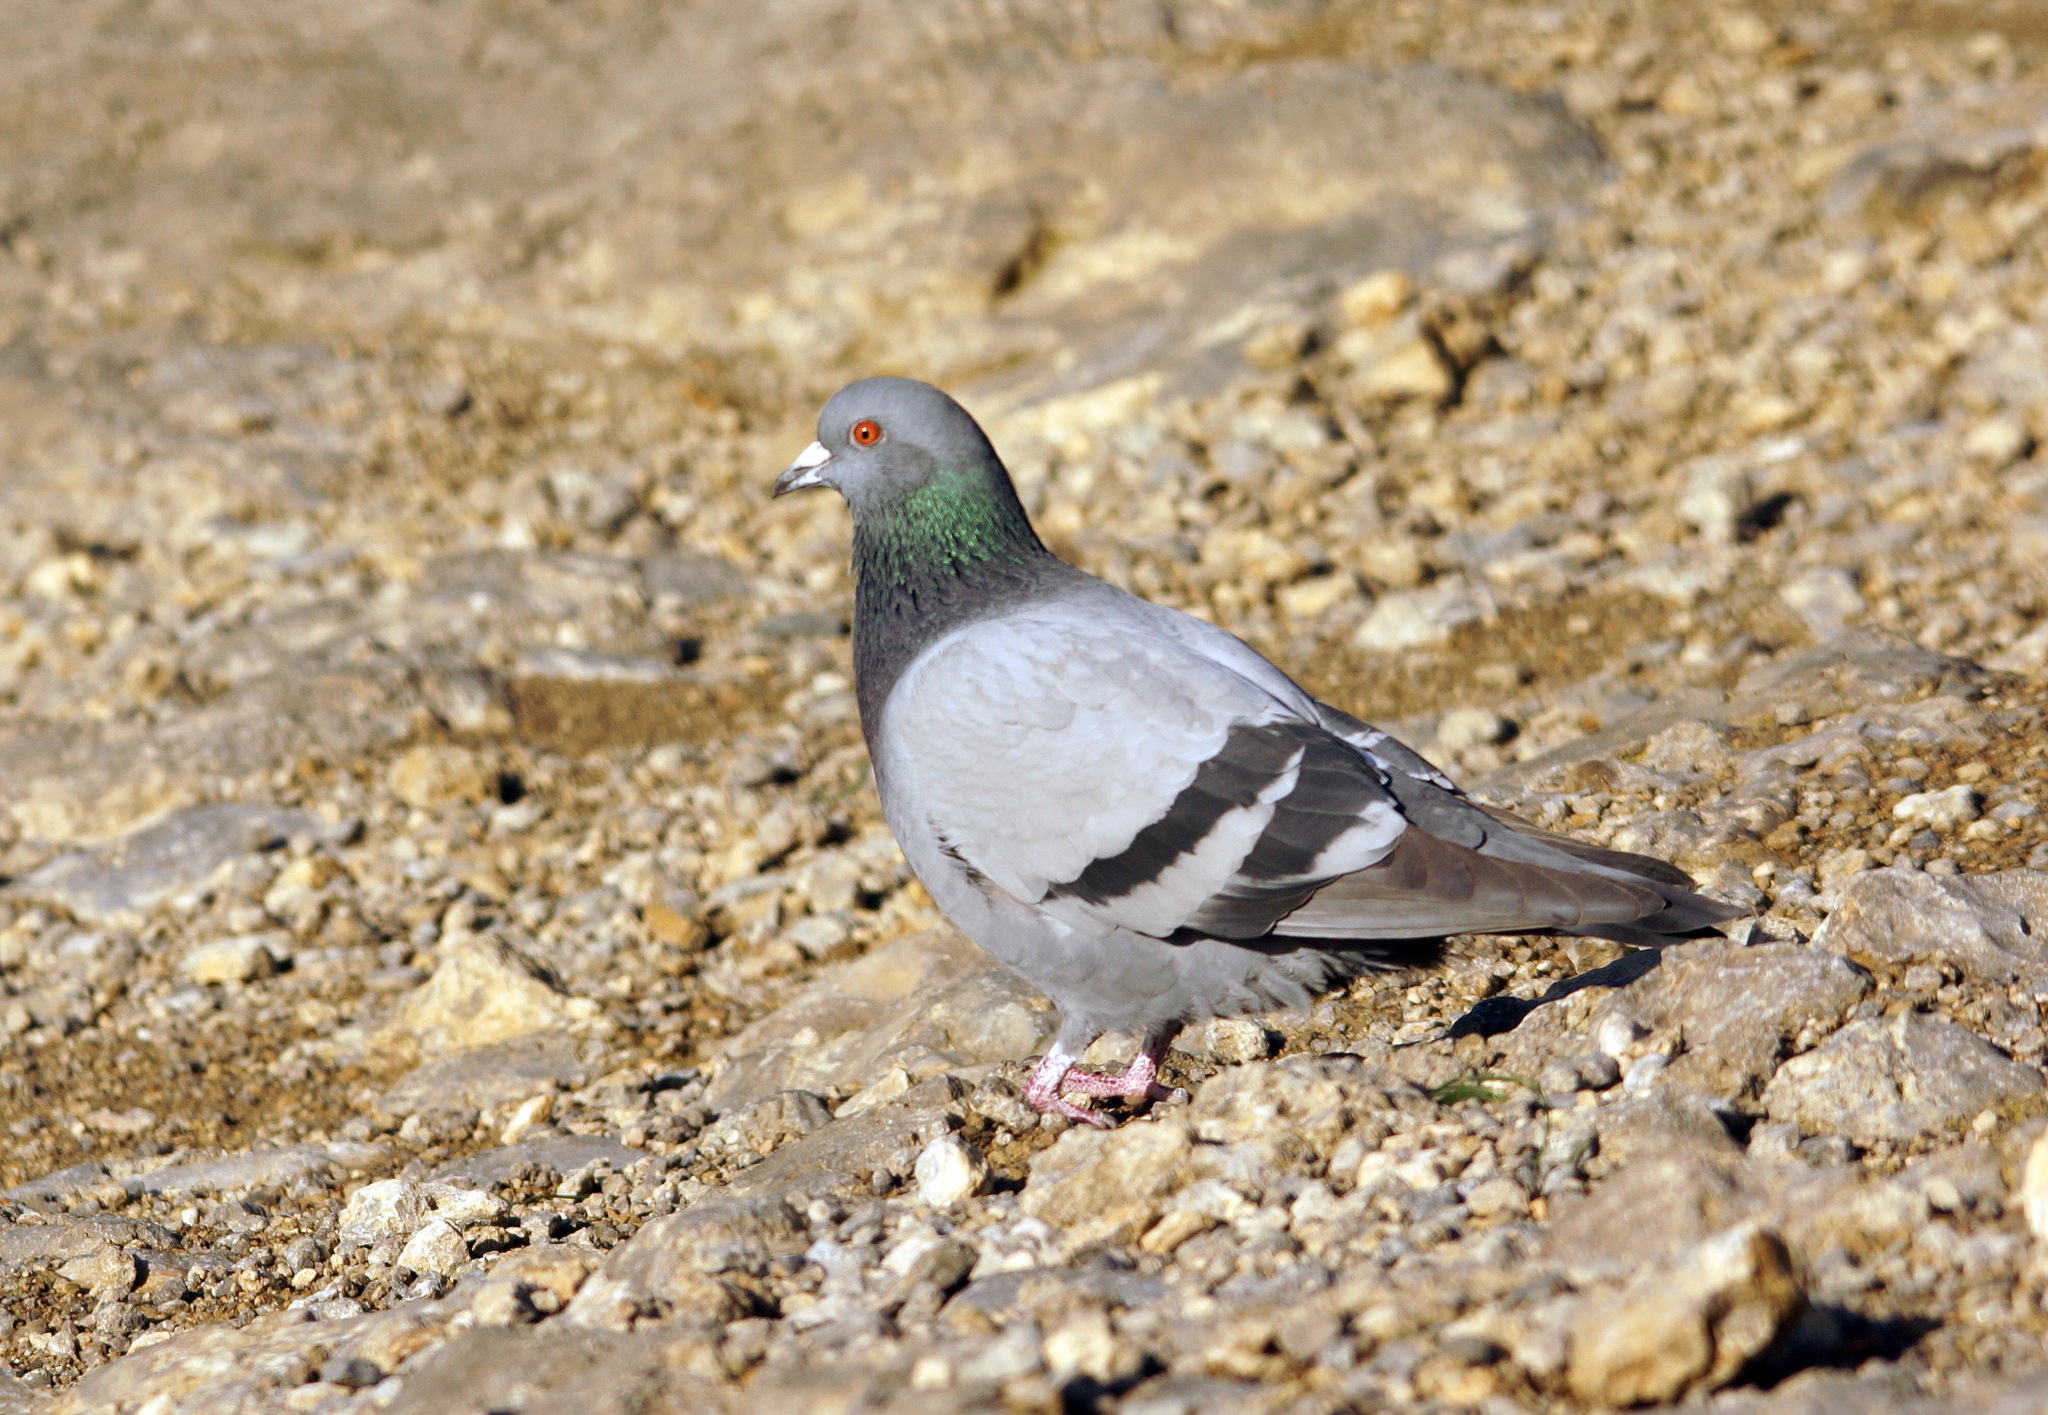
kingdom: Animalia
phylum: Chordata
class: Aves
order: Columbiformes
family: Columbidae
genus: Columba
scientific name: Columba livia
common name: Rock pigeon
